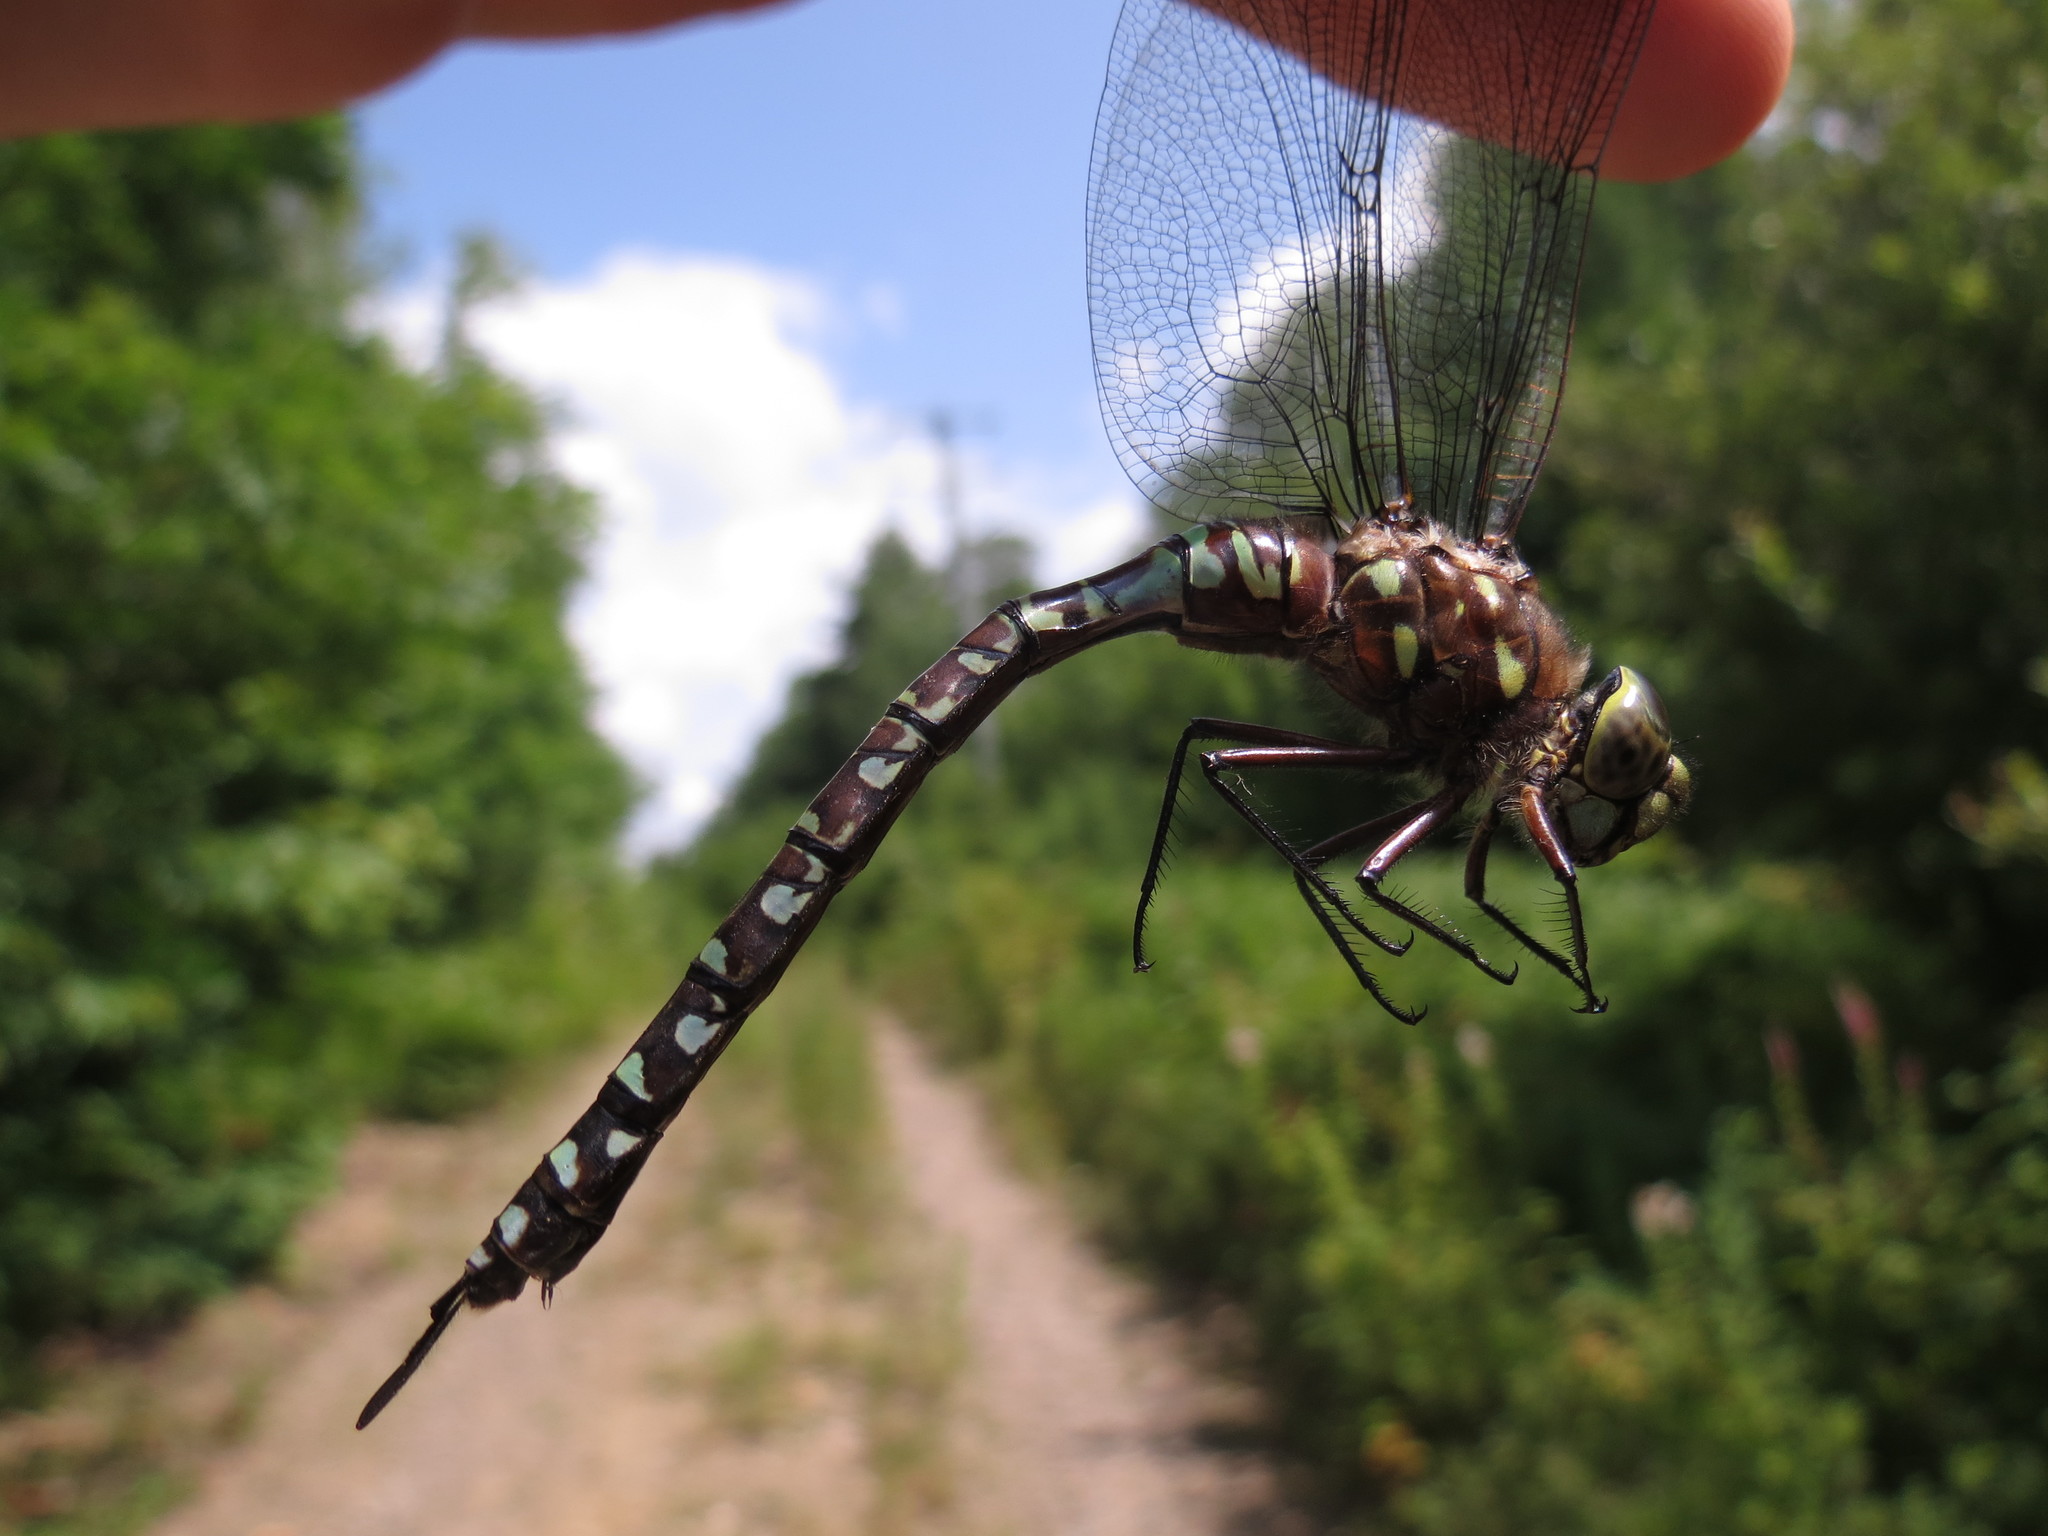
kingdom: Animalia
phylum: Arthropoda
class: Insecta
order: Odonata
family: Aeshnidae
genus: Aeshna
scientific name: Aeshna interrupta
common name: Variable darner
